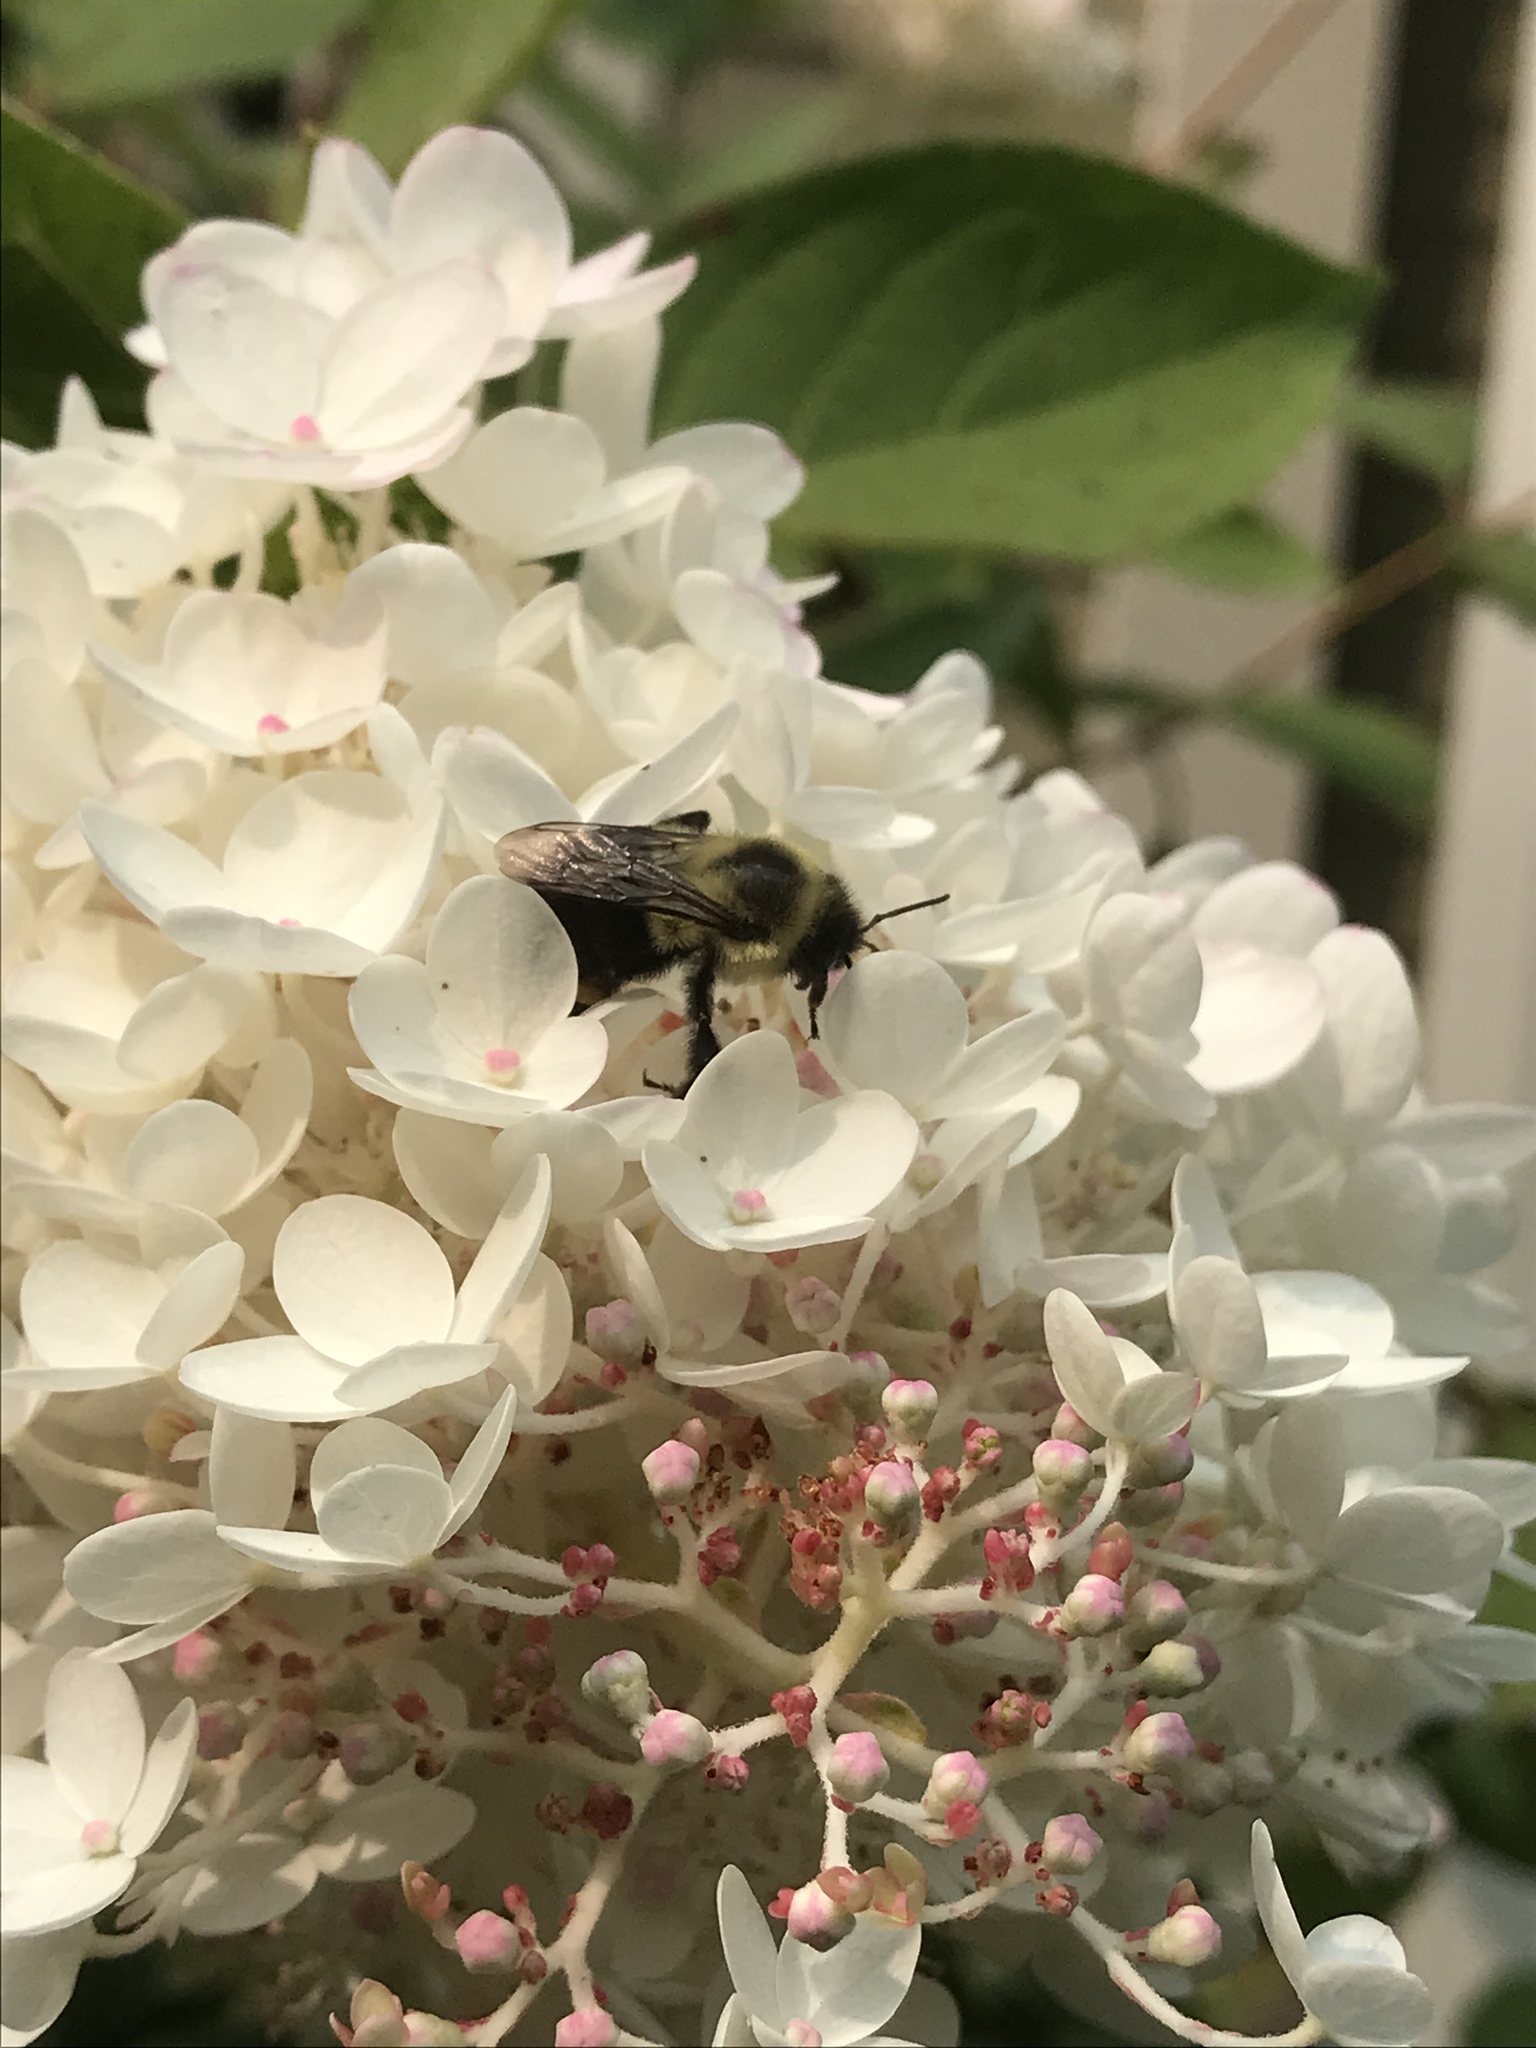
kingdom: Animalia
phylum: Arthropoda
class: Insecta
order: Hymenoptera
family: Apidae
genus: Bombus
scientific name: Bombus impatiens
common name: Common eastern bumble bee
